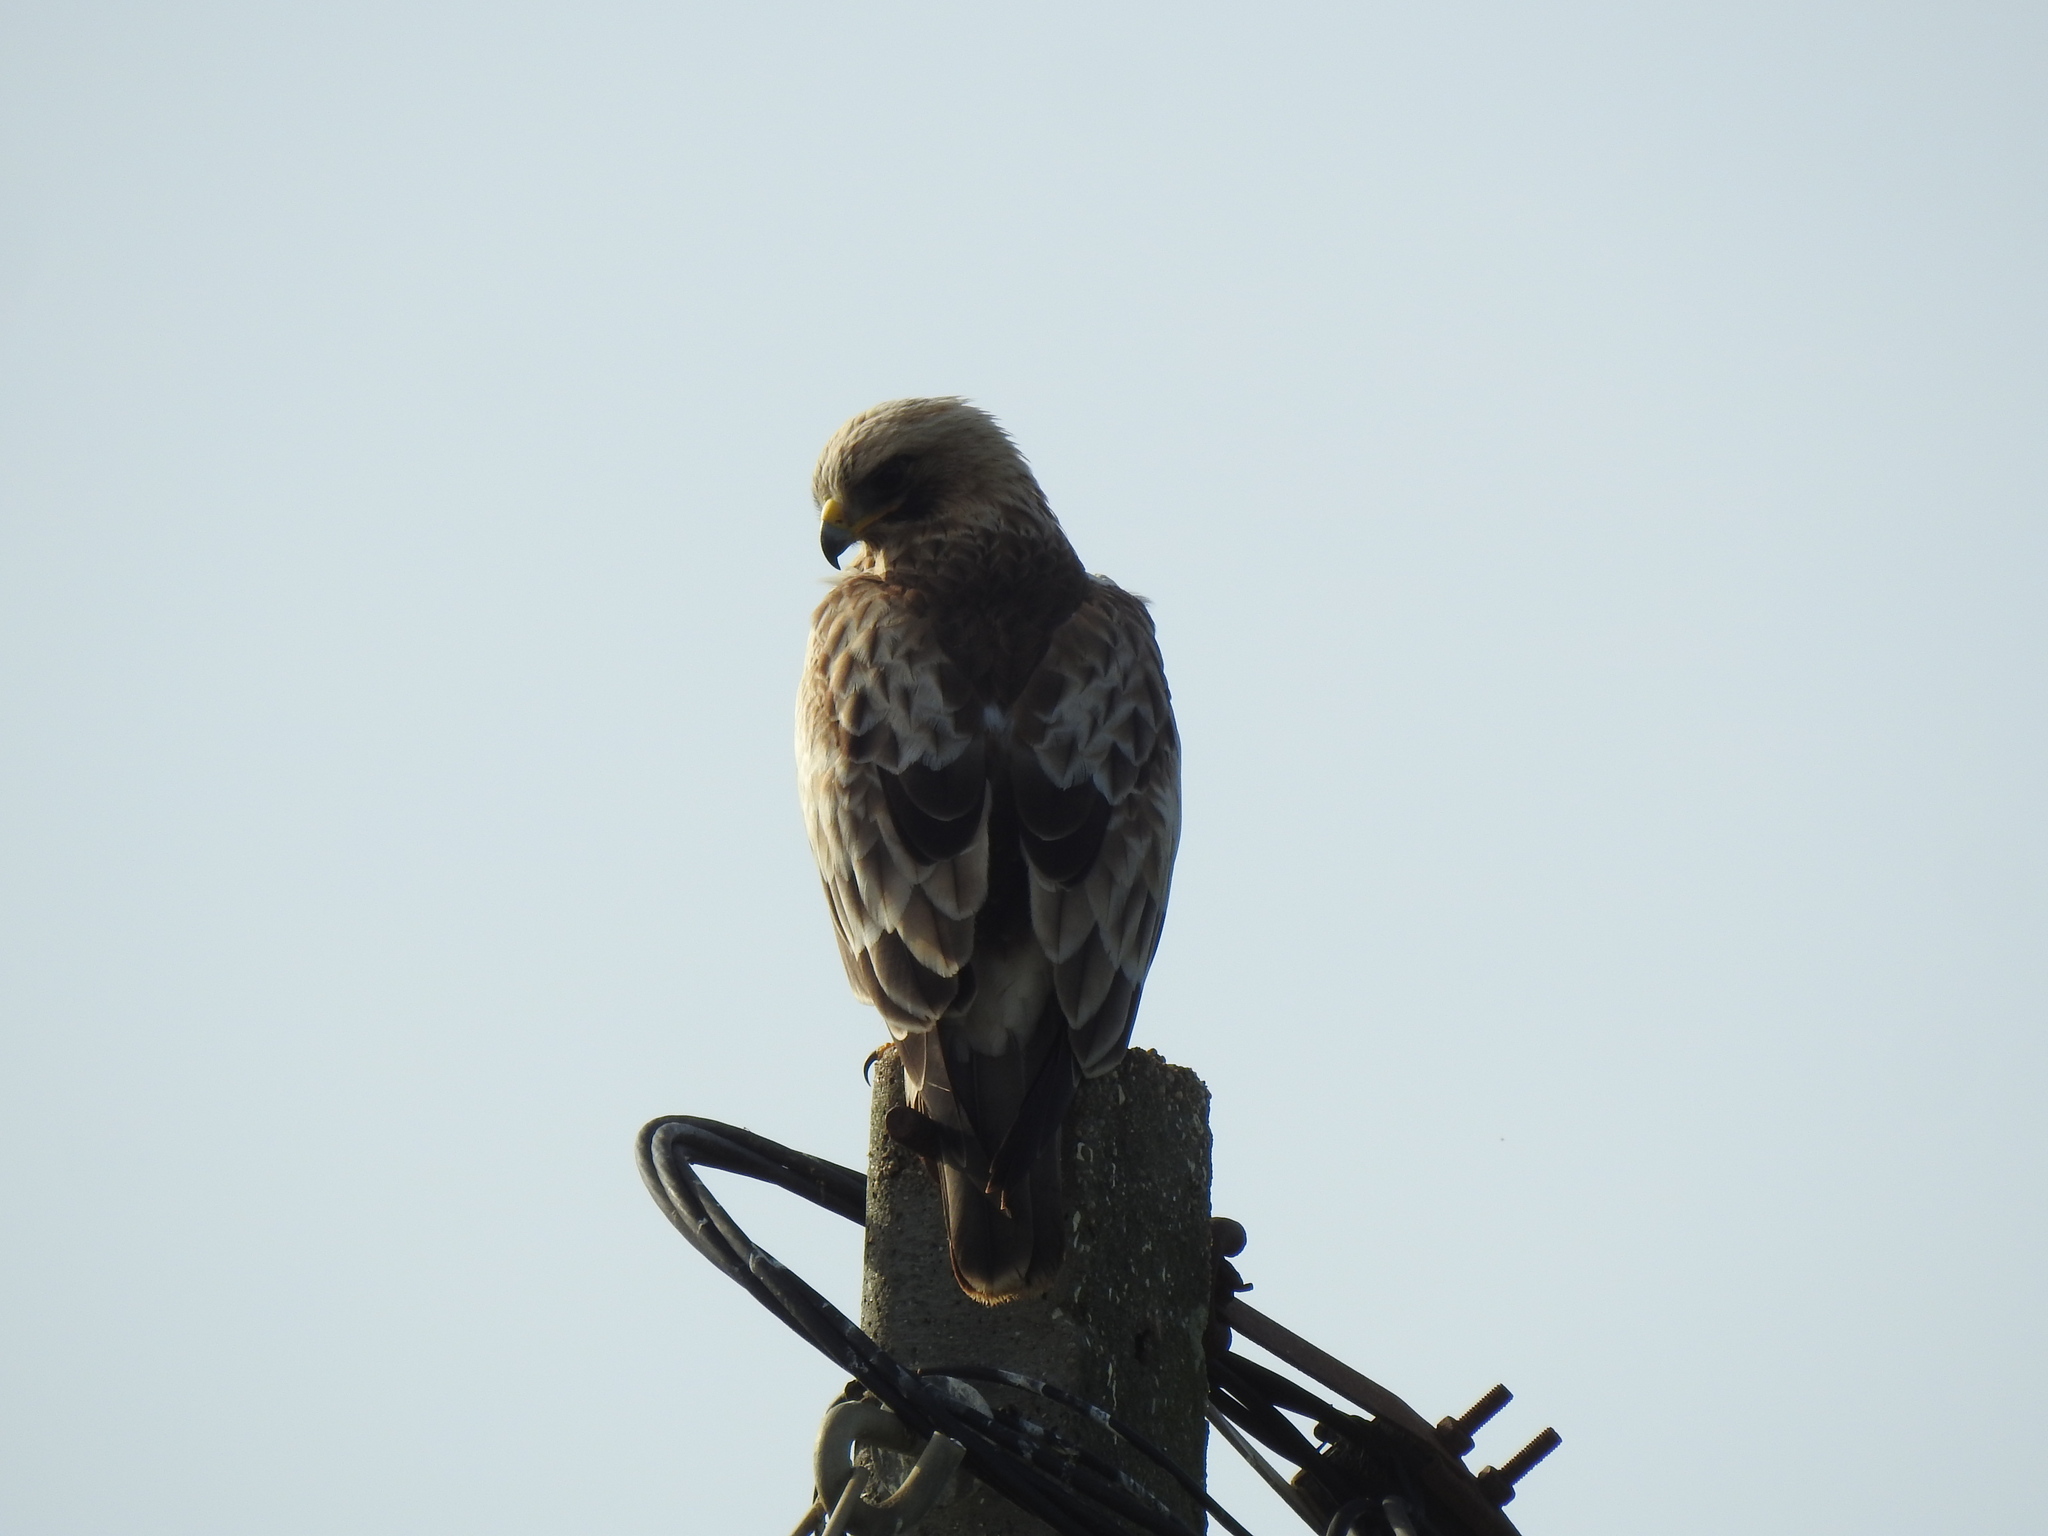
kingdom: Animalia
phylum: Chordata
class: Aves
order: Accipitriformes
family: Accipitridae
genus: Hieraaetus
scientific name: Hieraaetus pennatus
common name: Booted eagle
